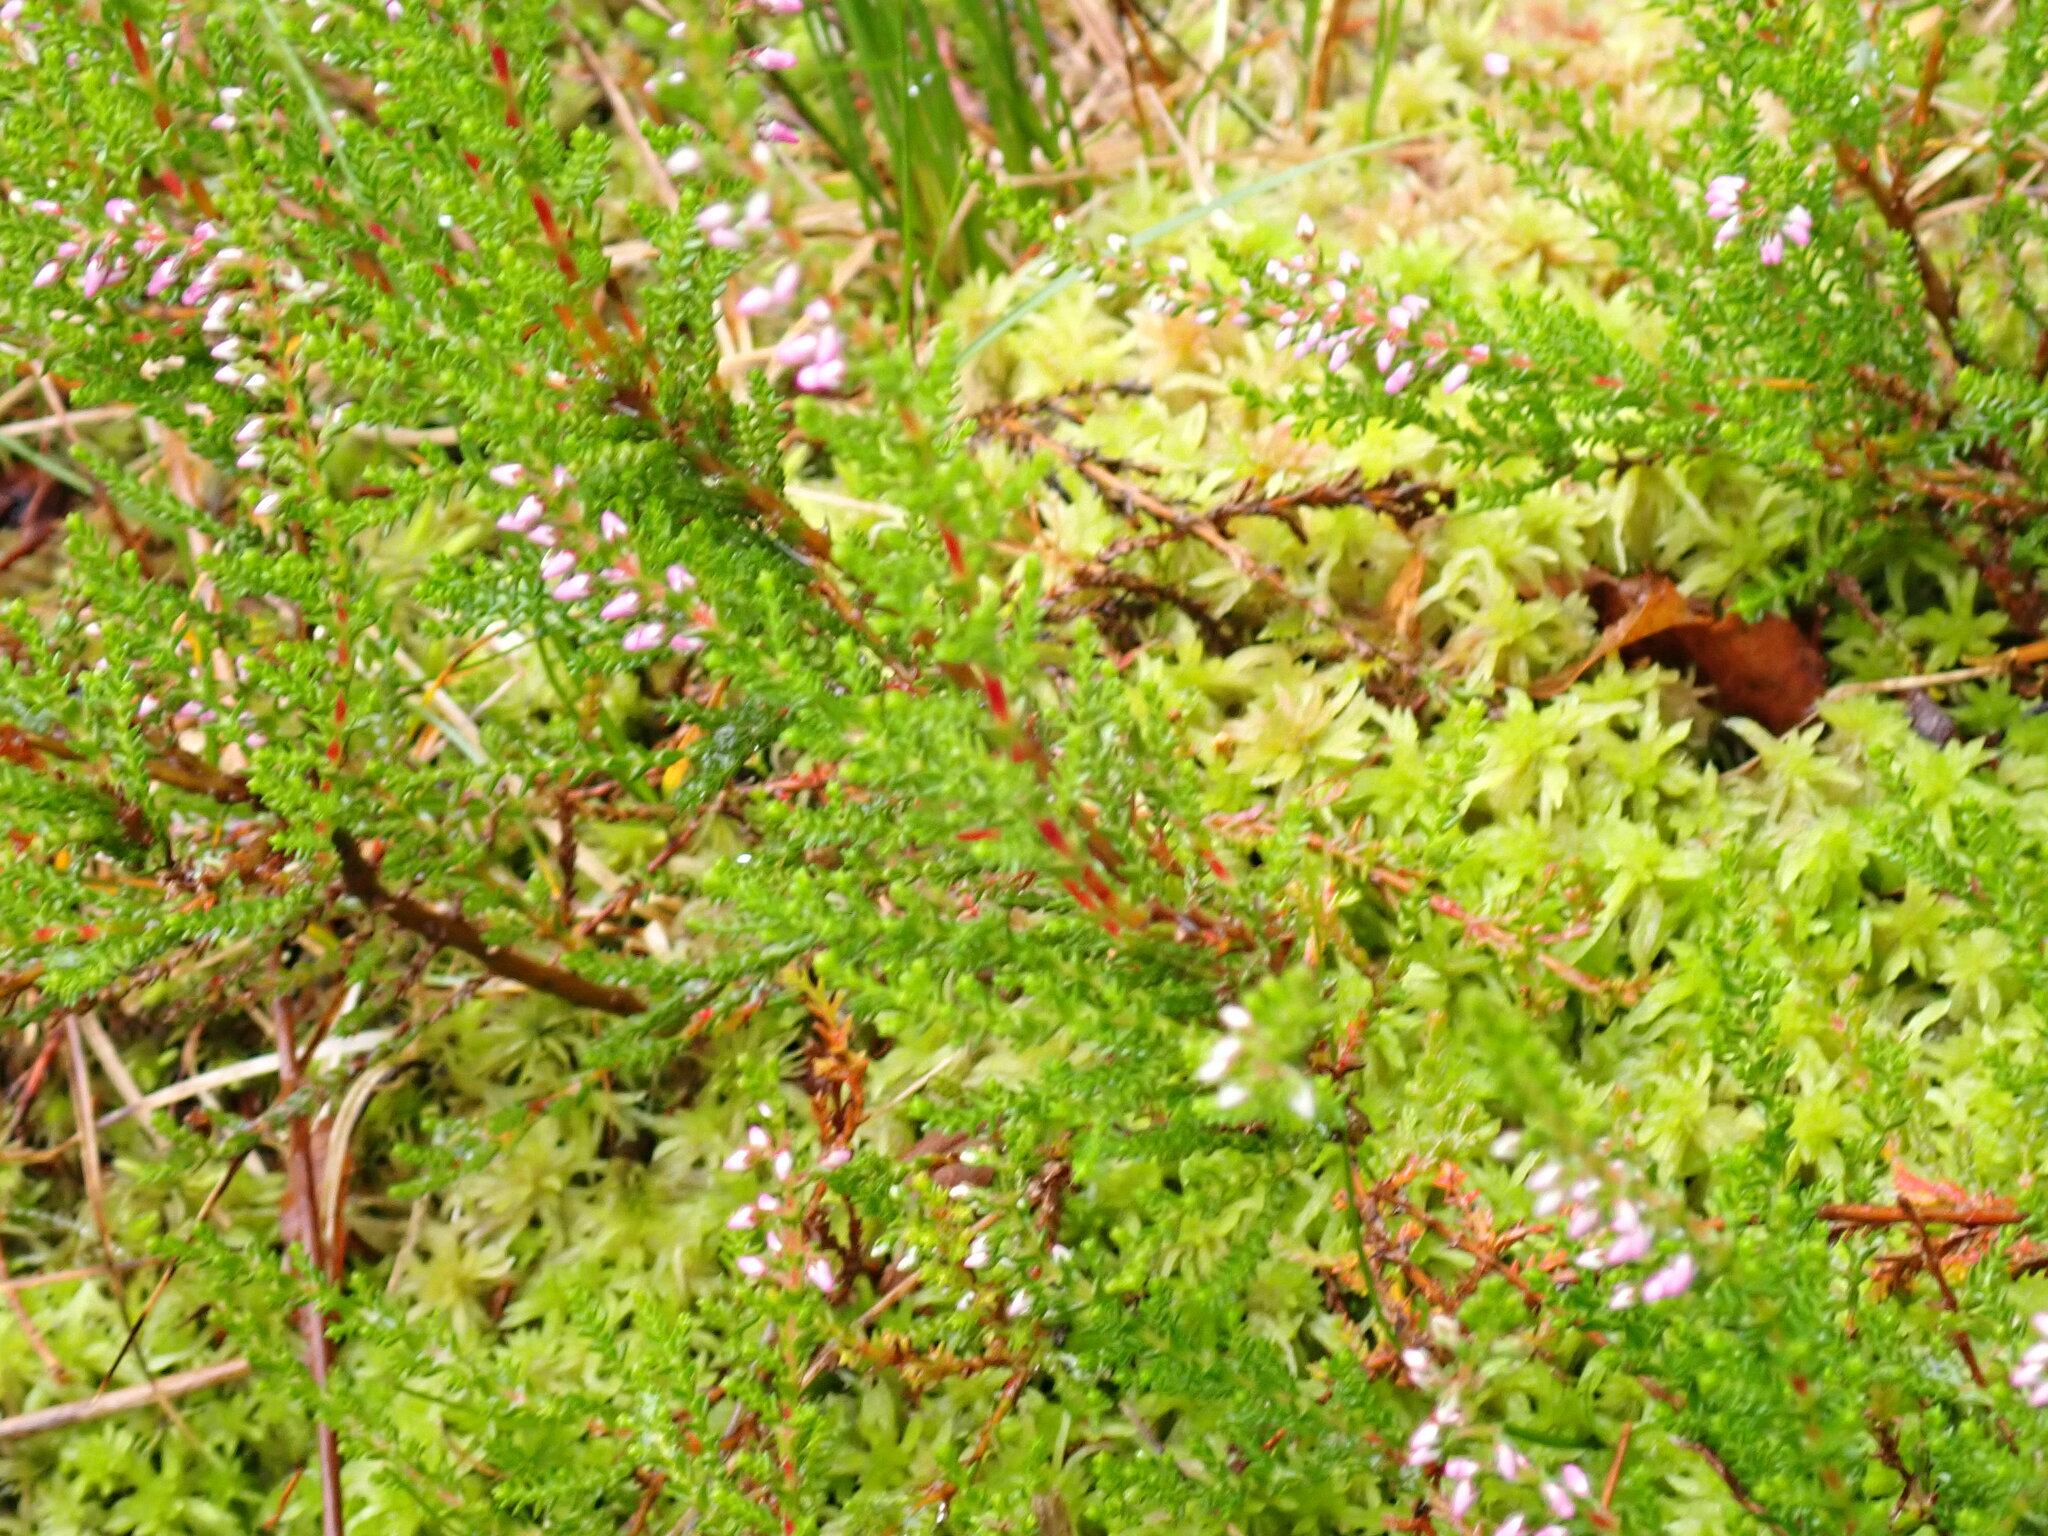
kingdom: Plantae
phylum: Tracheophyta
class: Magnoliopsida
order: Ericales
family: Ericaceae
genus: Calluna
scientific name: Calluna vulgaris
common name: Heather
